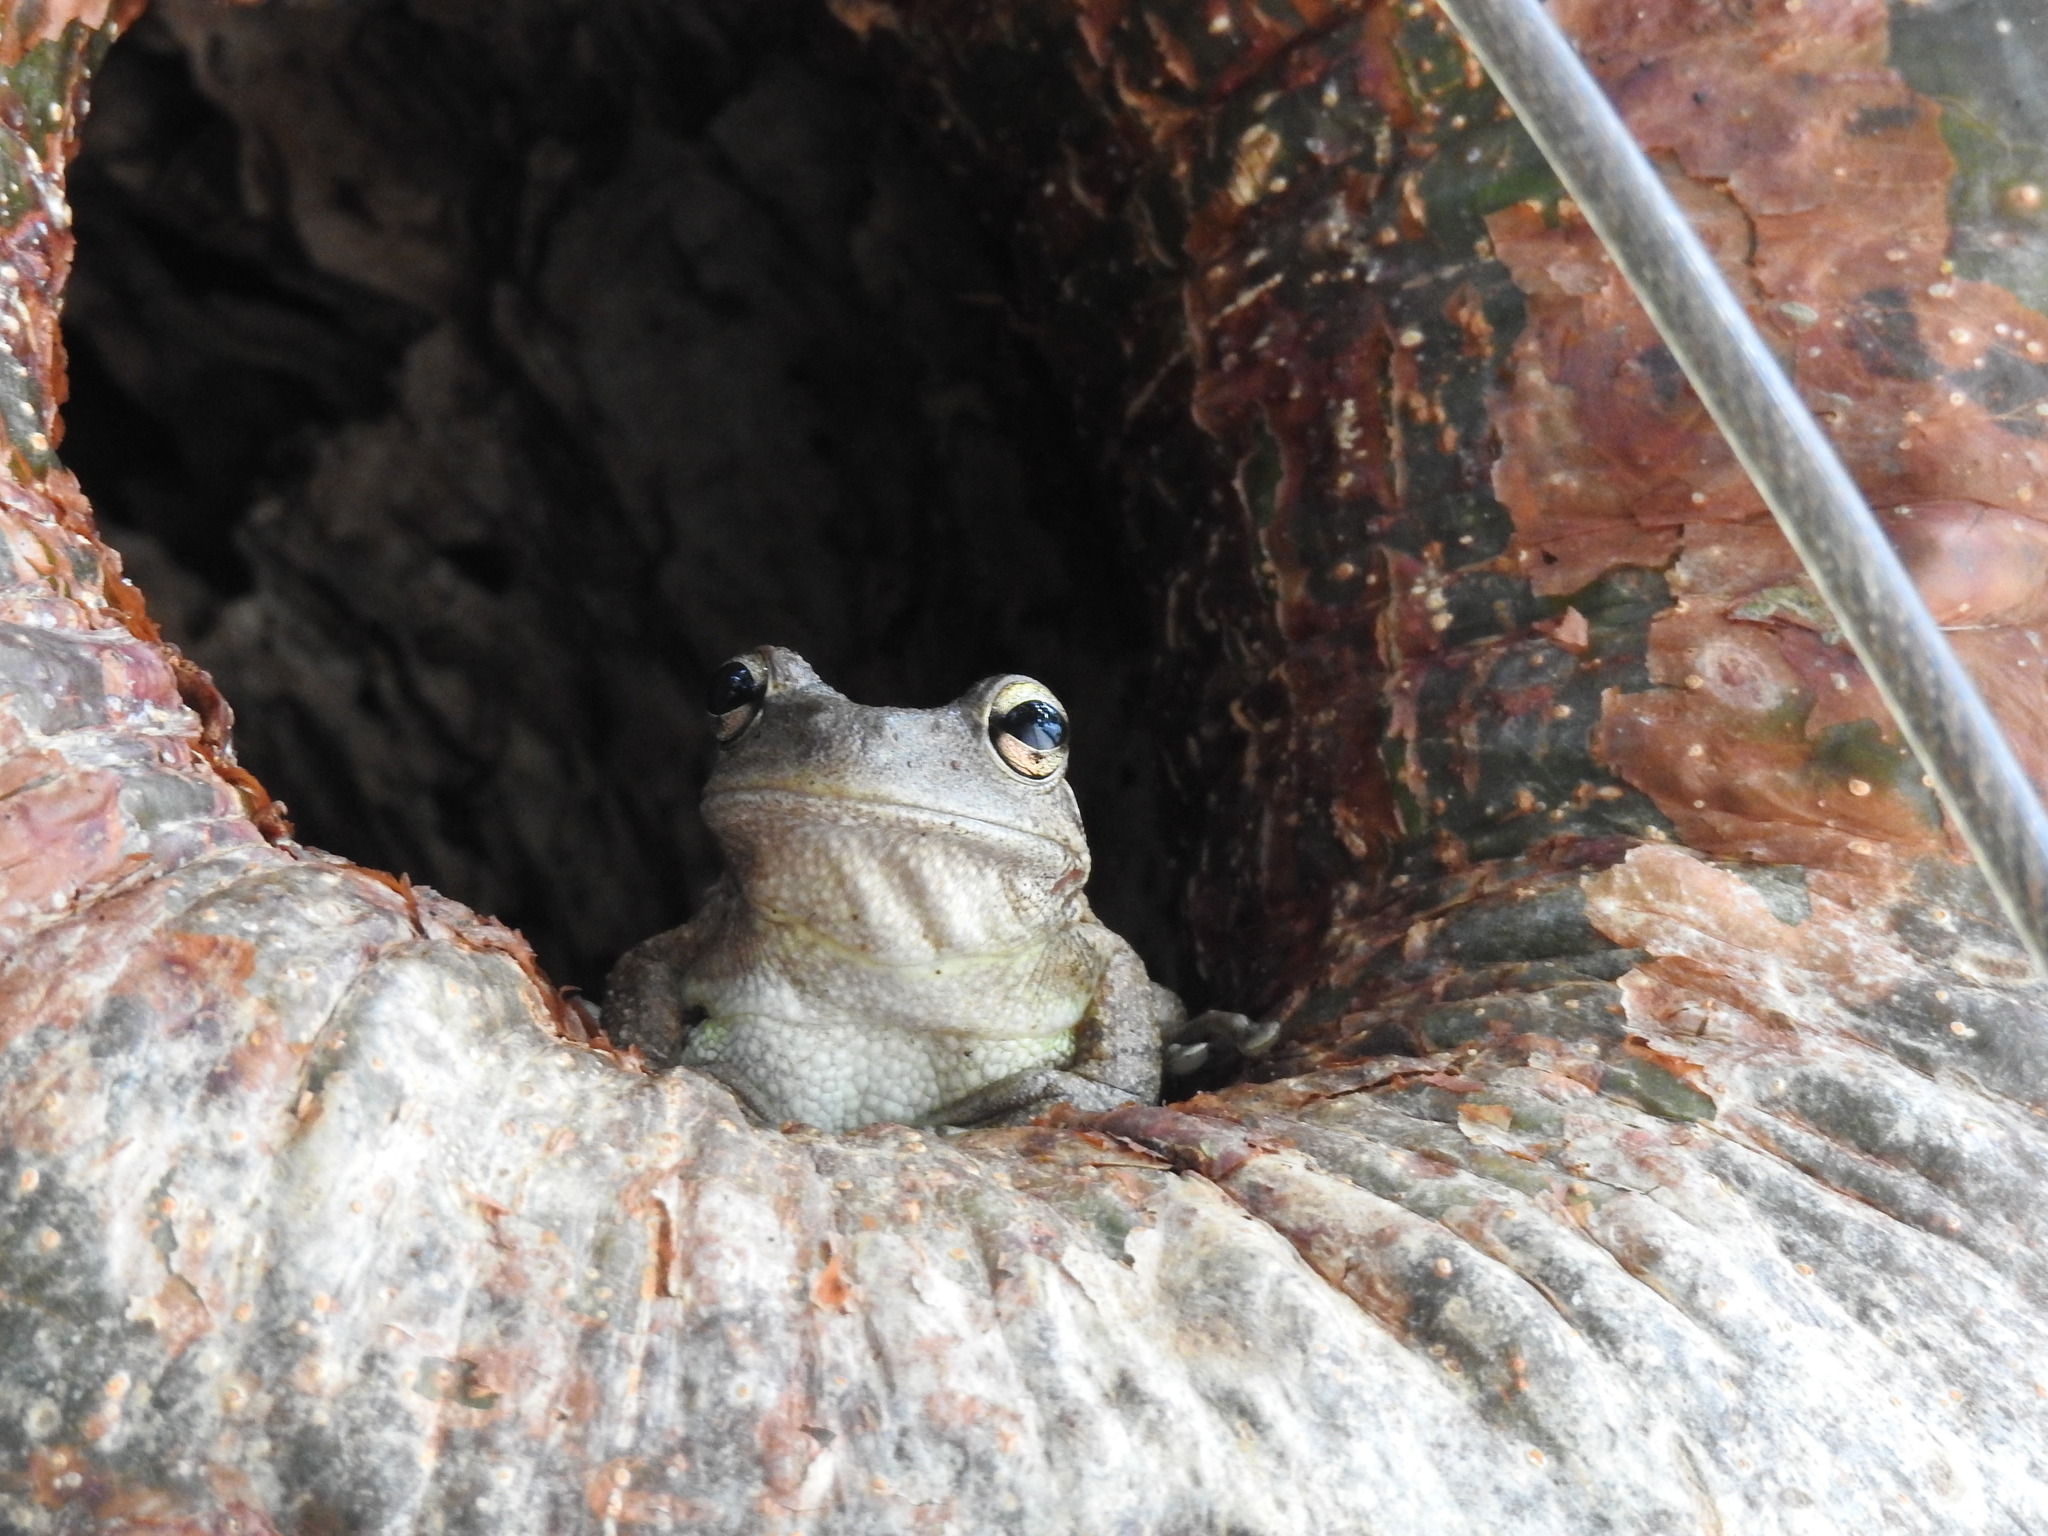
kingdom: Animalia
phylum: Chordata
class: Amphibia
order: Anura
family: Hylidae
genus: Osteopilus
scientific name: Osteopilus septentrionalis
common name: Cuban treefrog
